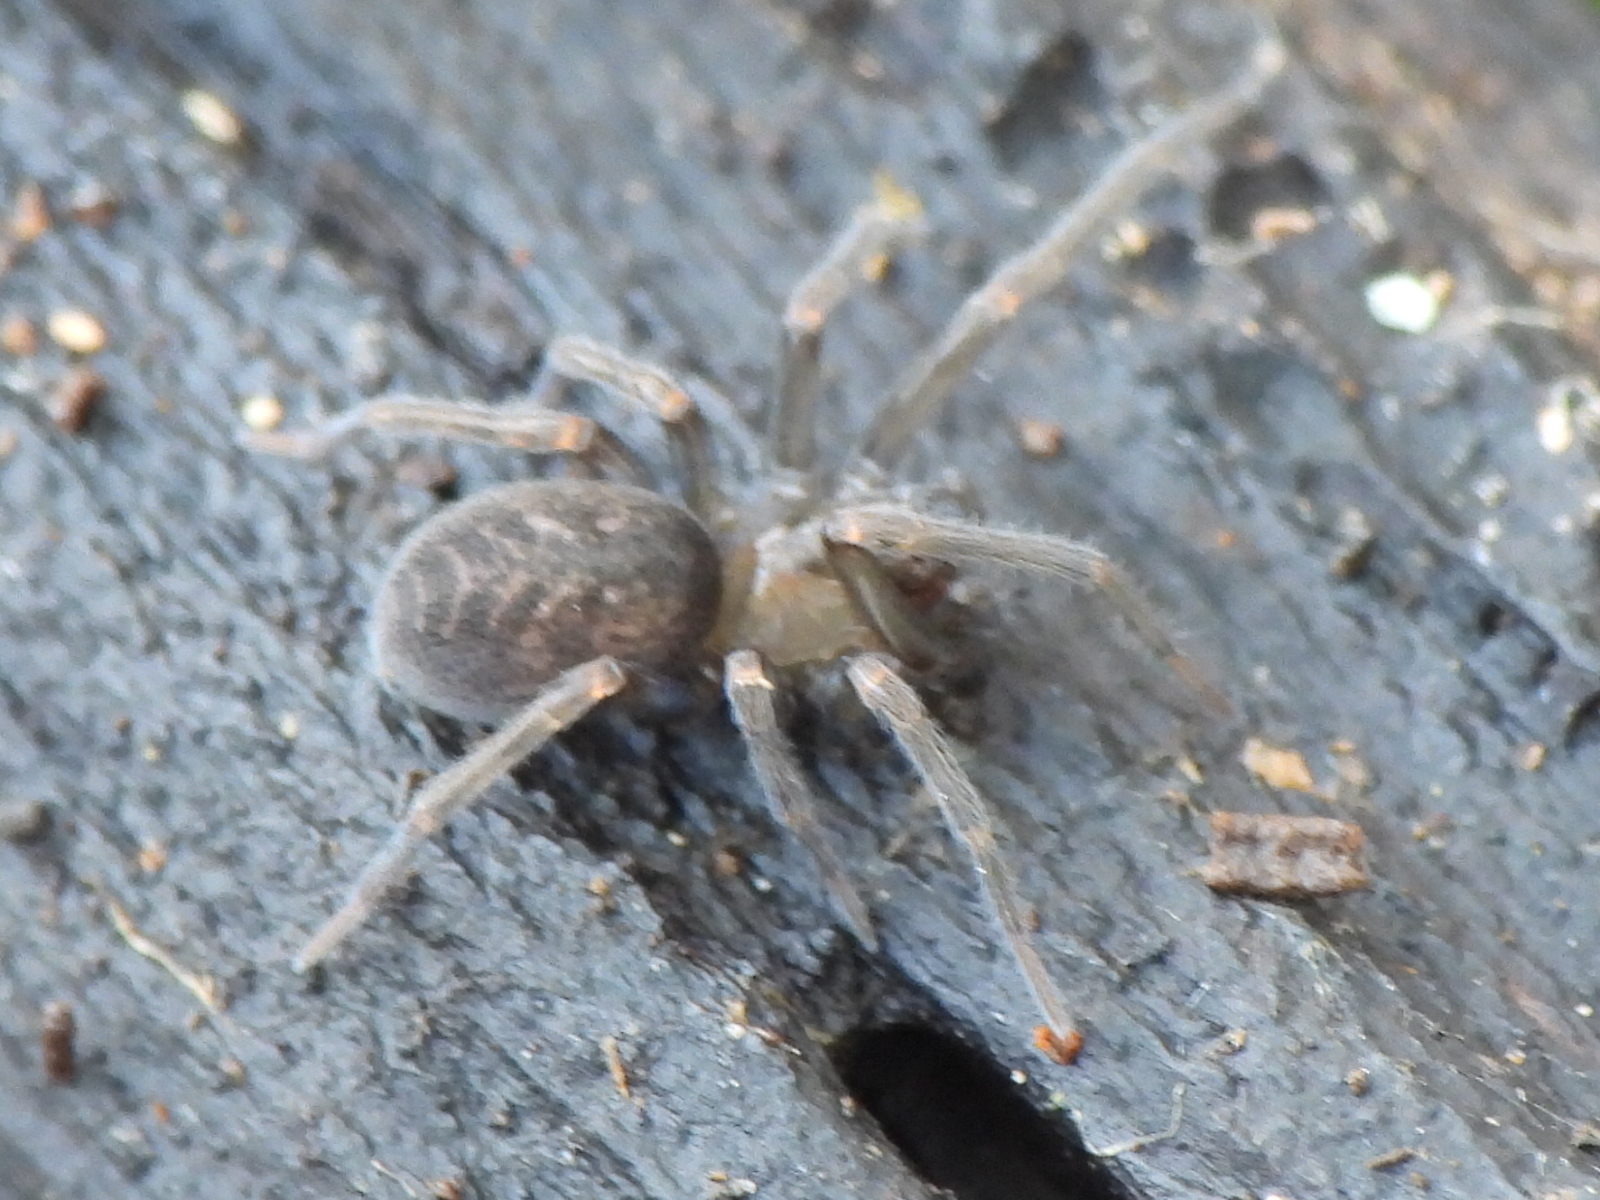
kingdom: Animalia
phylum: Arthropoda
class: Arachnida
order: Araneae
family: Desidae
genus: Metaltella
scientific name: Metaltella simoni
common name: Cribellate spider
